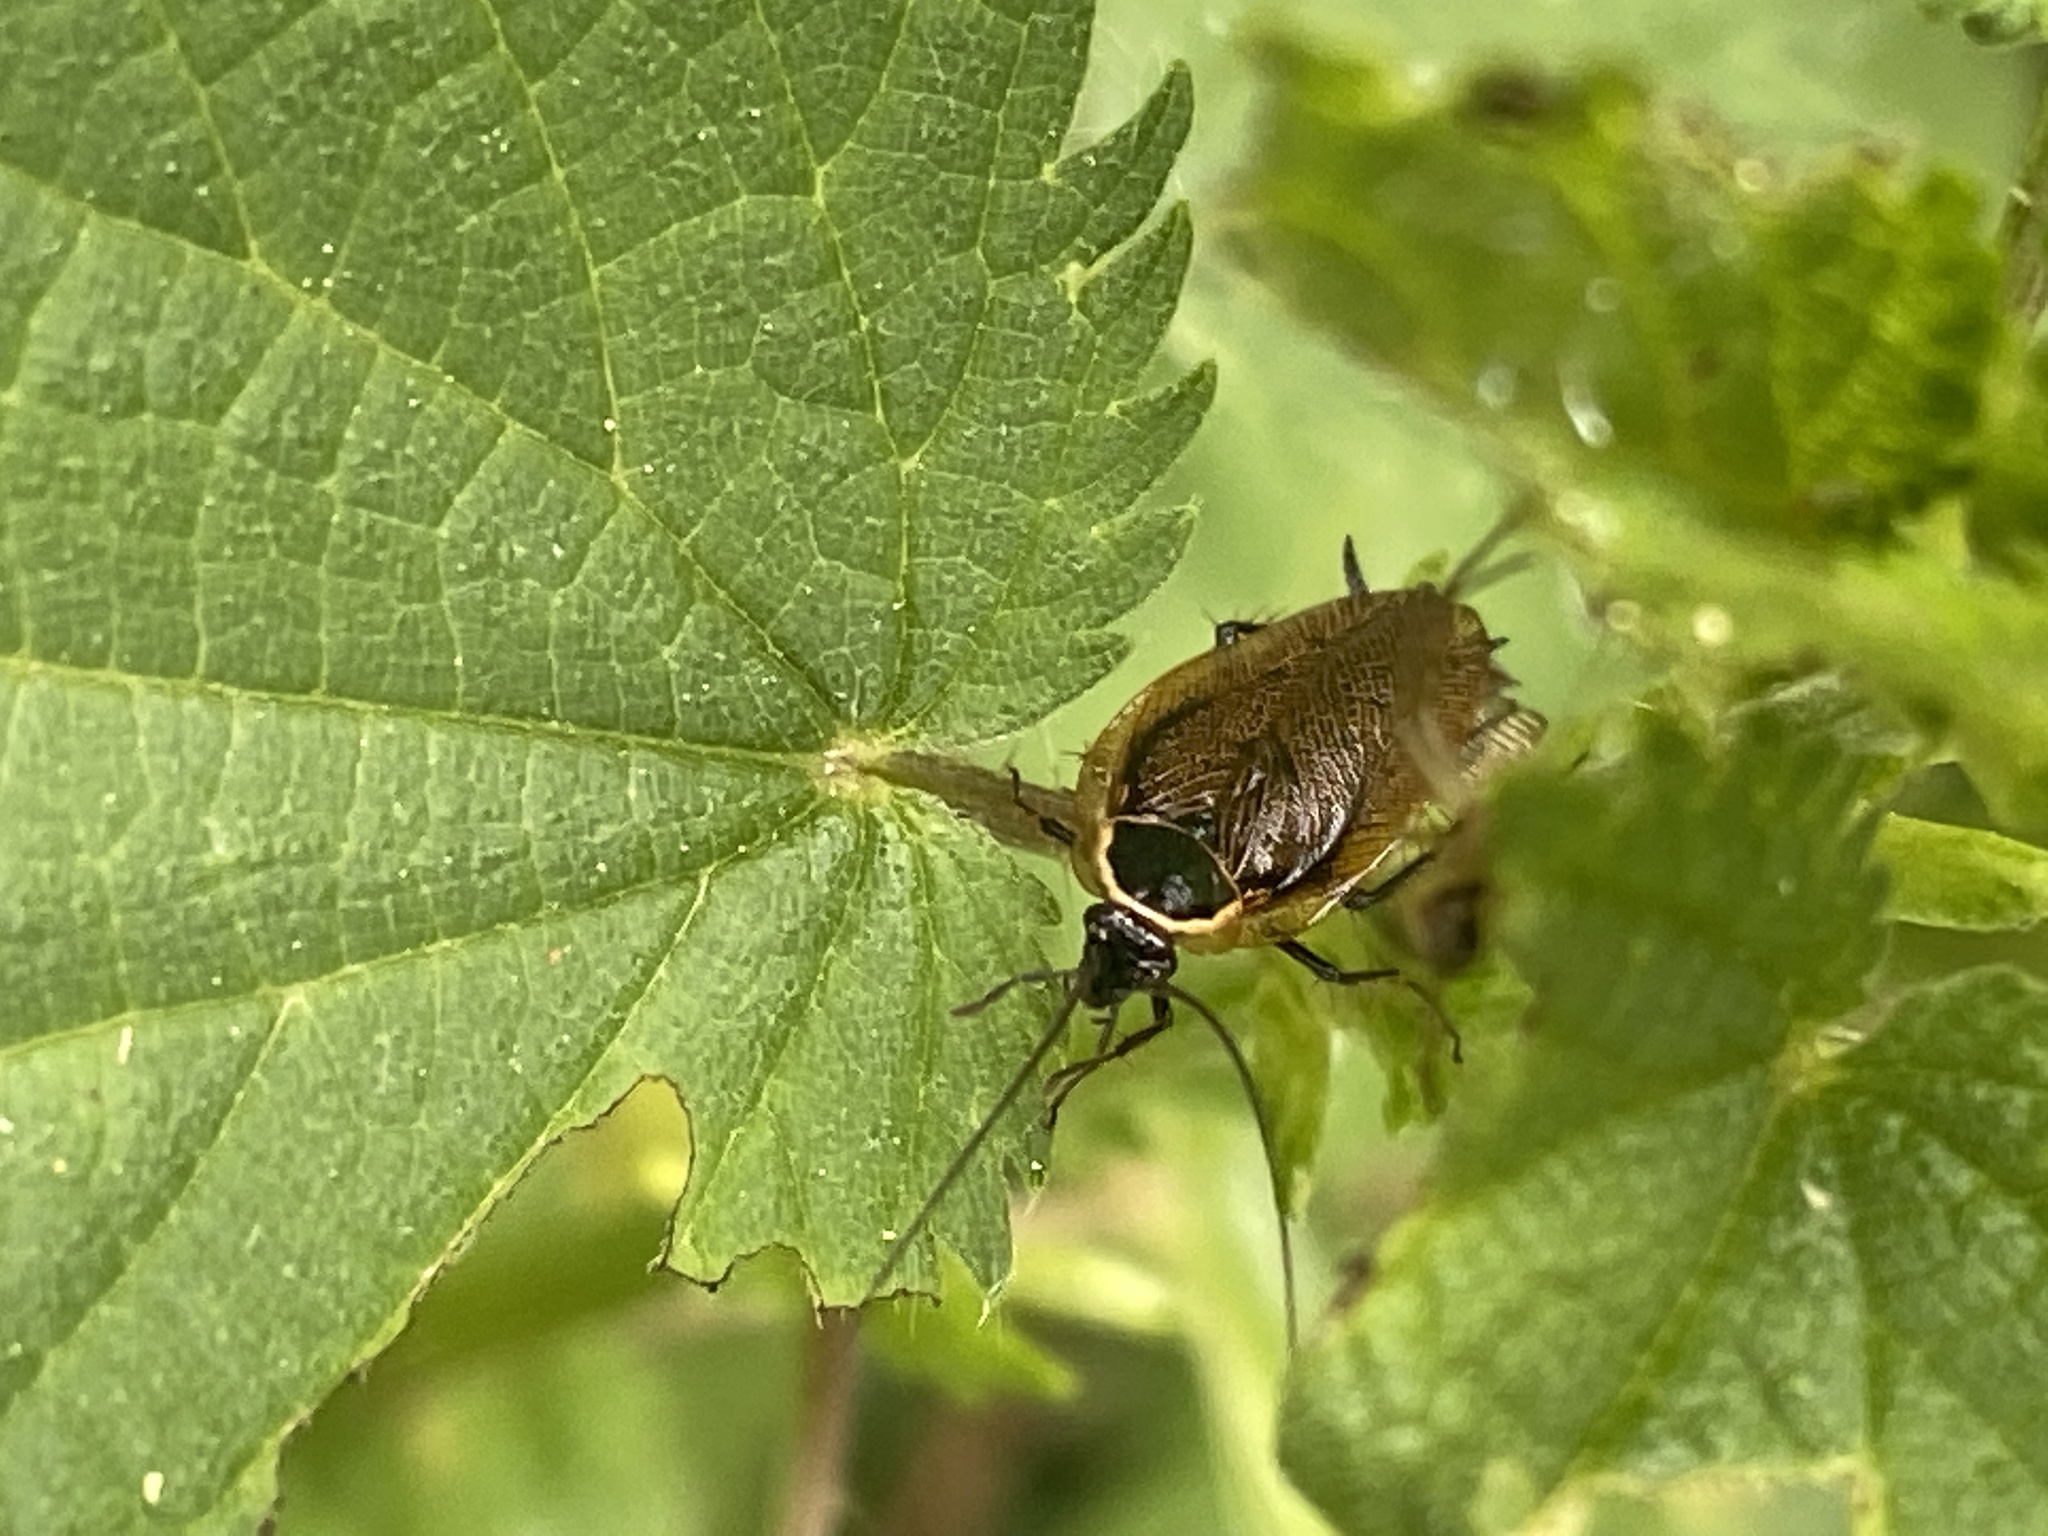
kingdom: Animalia
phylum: Arthropoda
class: Insecta
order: Blattodea
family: Ectobiidae
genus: Ectobius
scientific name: Ectobius sylvestris
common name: Forest cockroach
